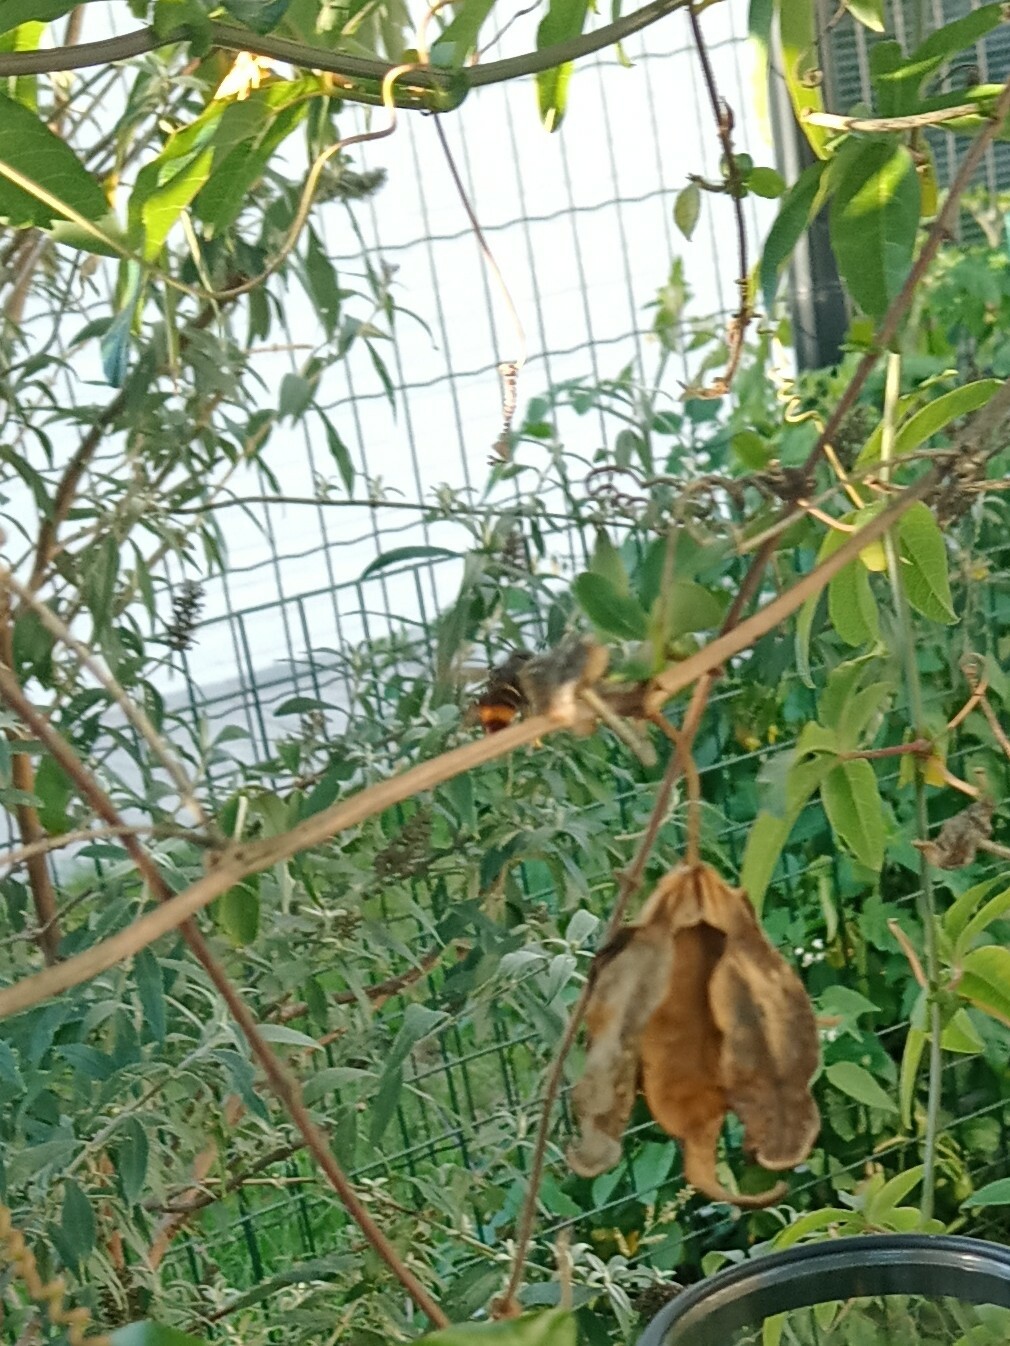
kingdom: Animalia
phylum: Arthropoda
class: Insecta
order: Hymenoptera
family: Vespidae
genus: Vespa
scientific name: Vespa velutina
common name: Asian hornet
